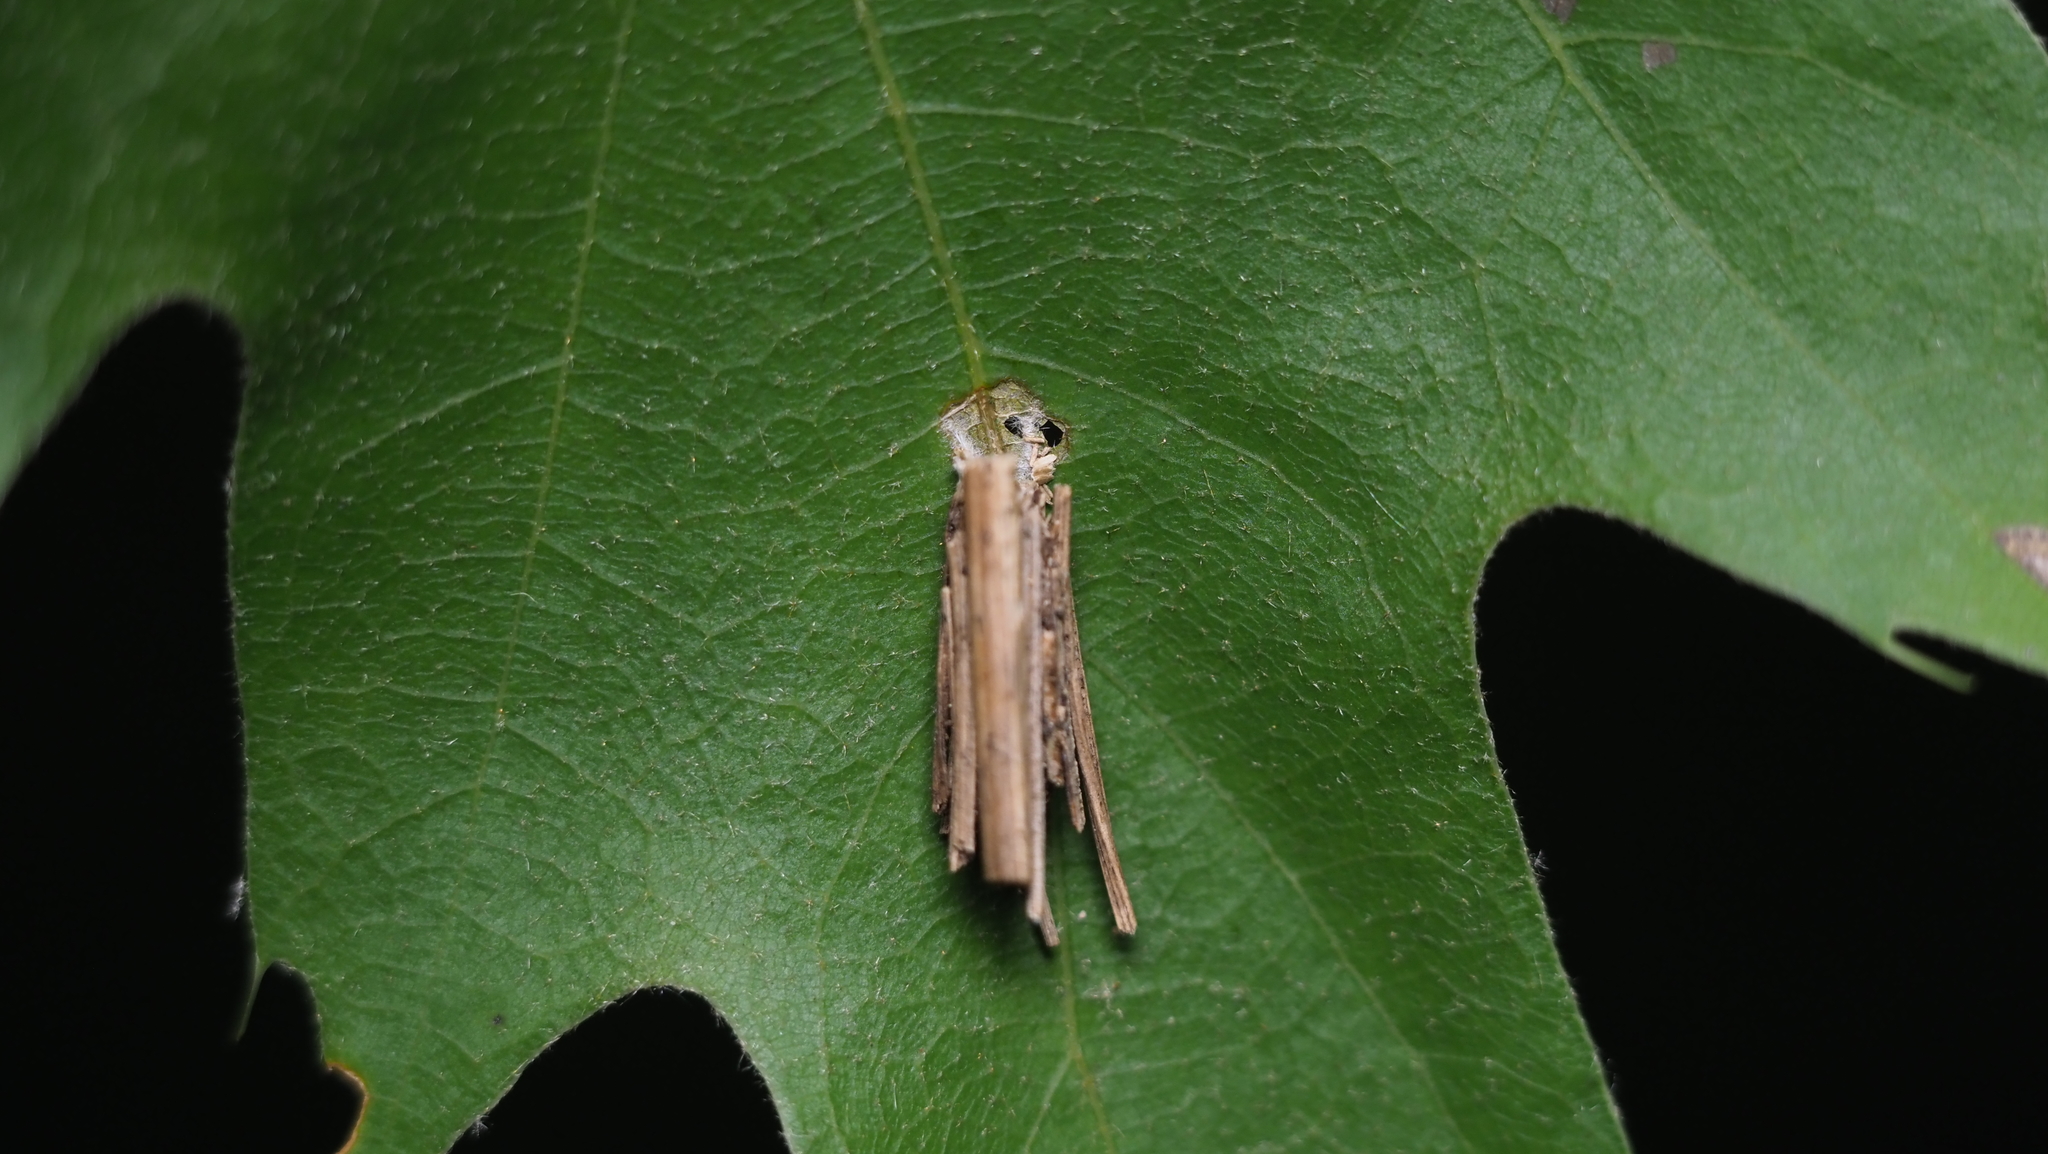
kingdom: Animalia
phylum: Arthropoda
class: Insecta
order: Lepidoptera
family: Psychidae
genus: Psyche
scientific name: Psyche casta
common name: Common sweep
